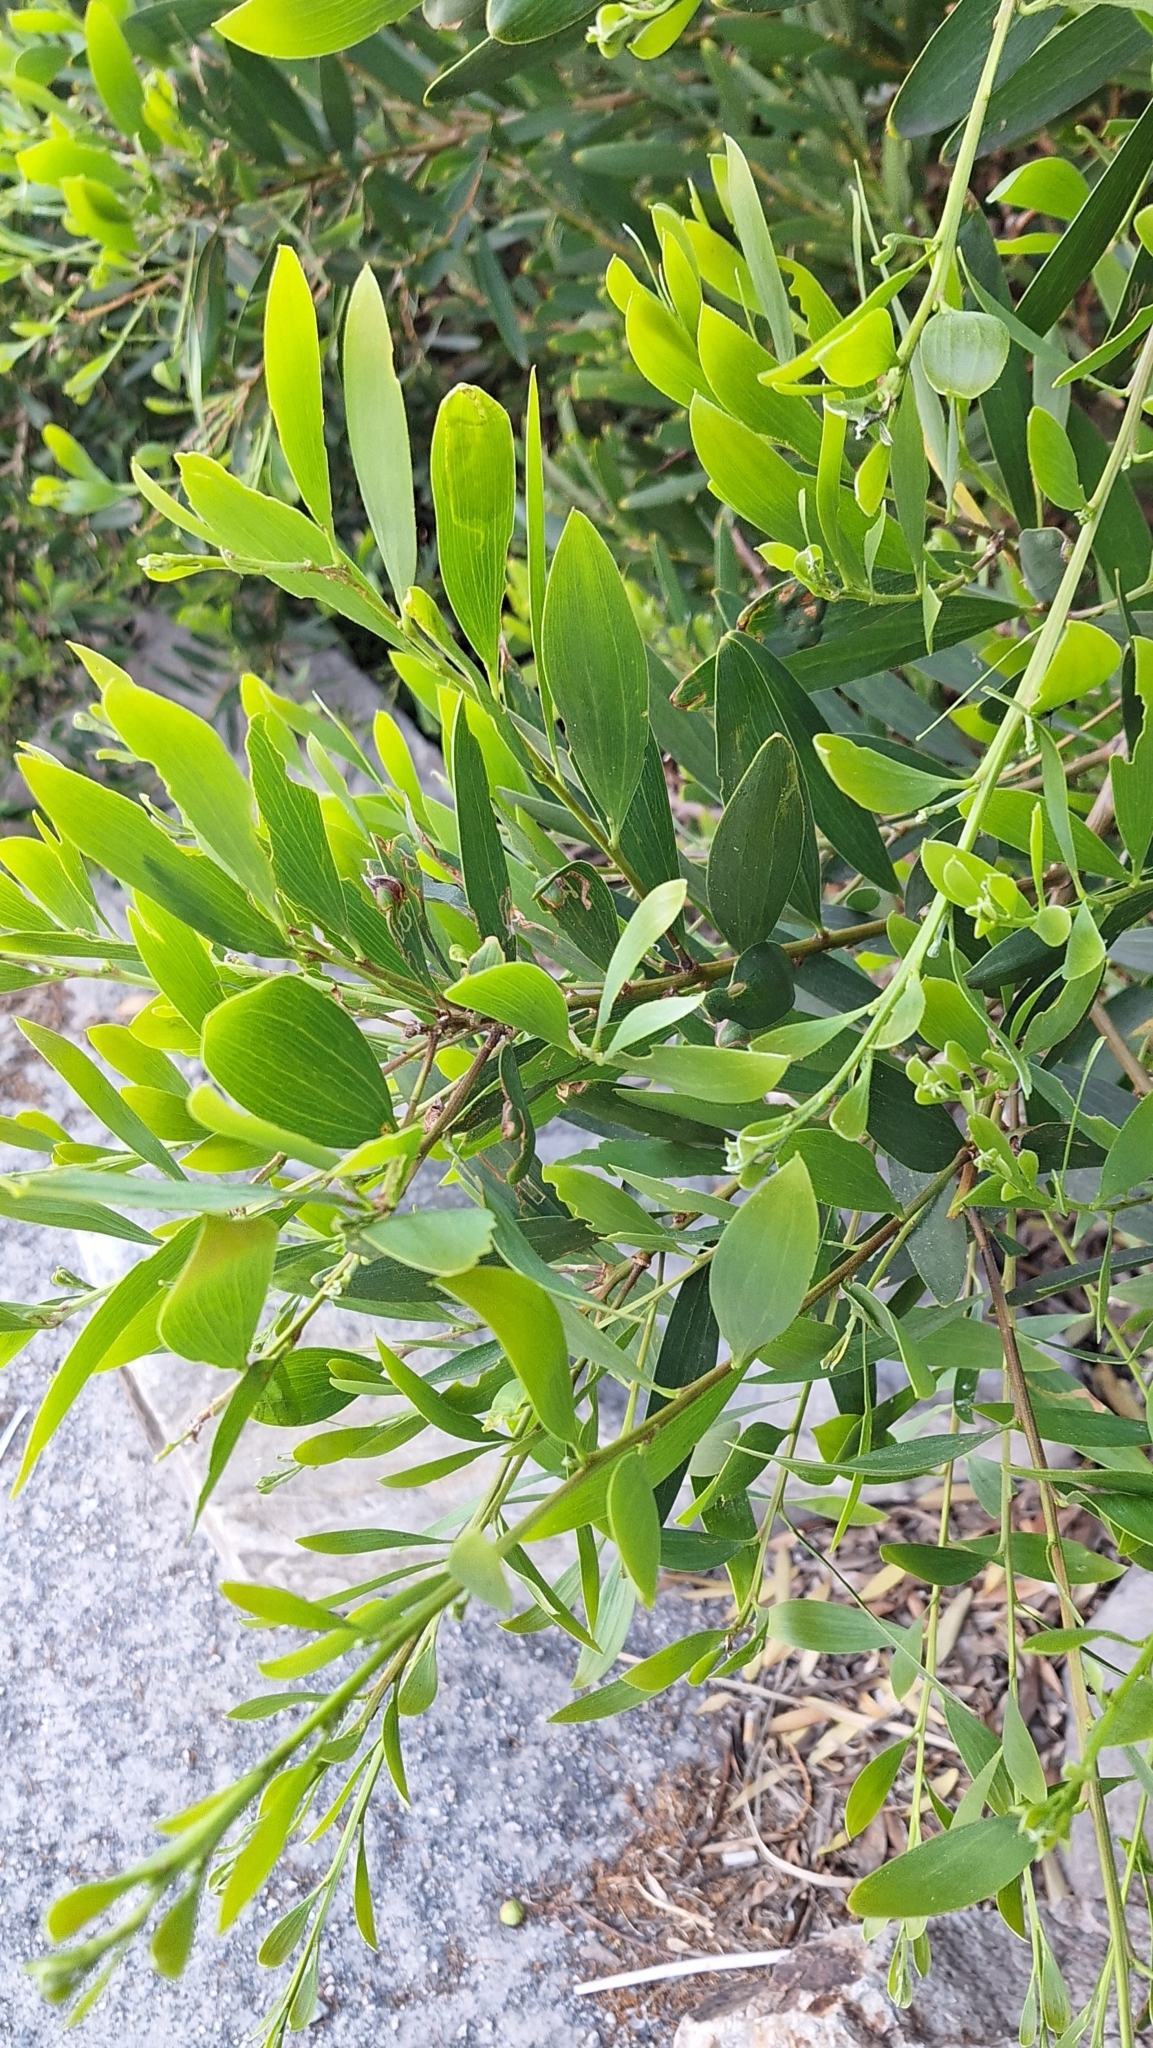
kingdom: Plantae
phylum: Tracheophyta
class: Magnoliopsida
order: Fabales
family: Fabaceae
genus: Acacia
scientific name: Acacia longifolia
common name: Sydney golden wattle
